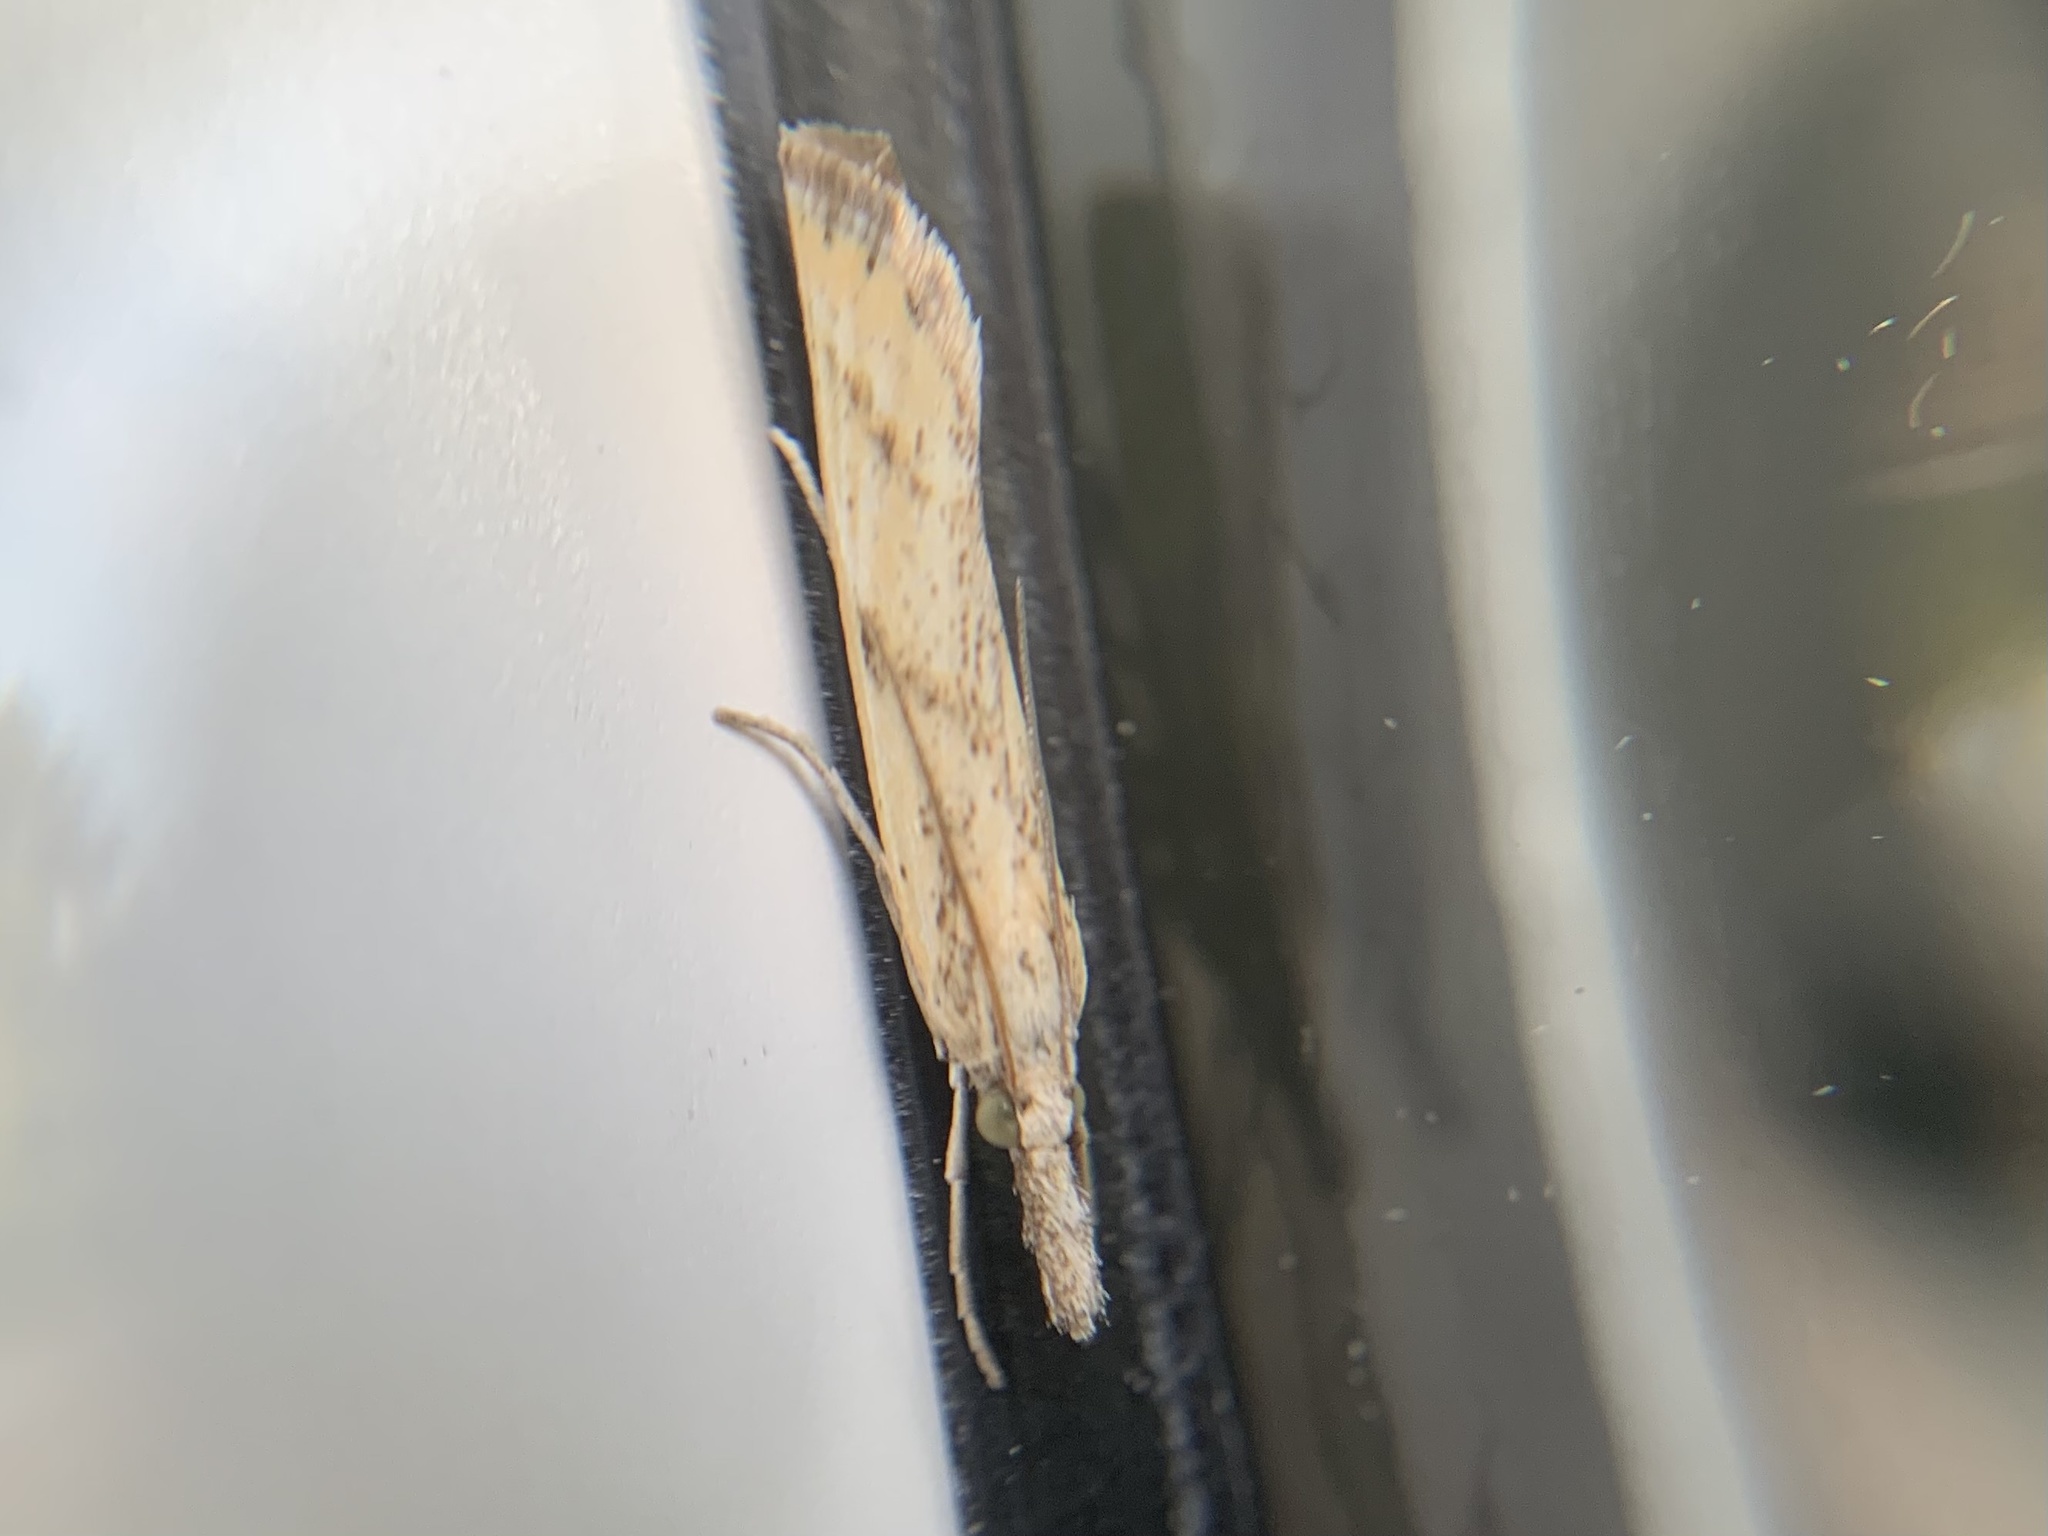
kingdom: Animalia
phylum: Arthropoda
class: Insecta
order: Lepidoptera
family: Crambidae
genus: Agriphila
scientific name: Agriphila inquinatella
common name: Barred grass-veneer
